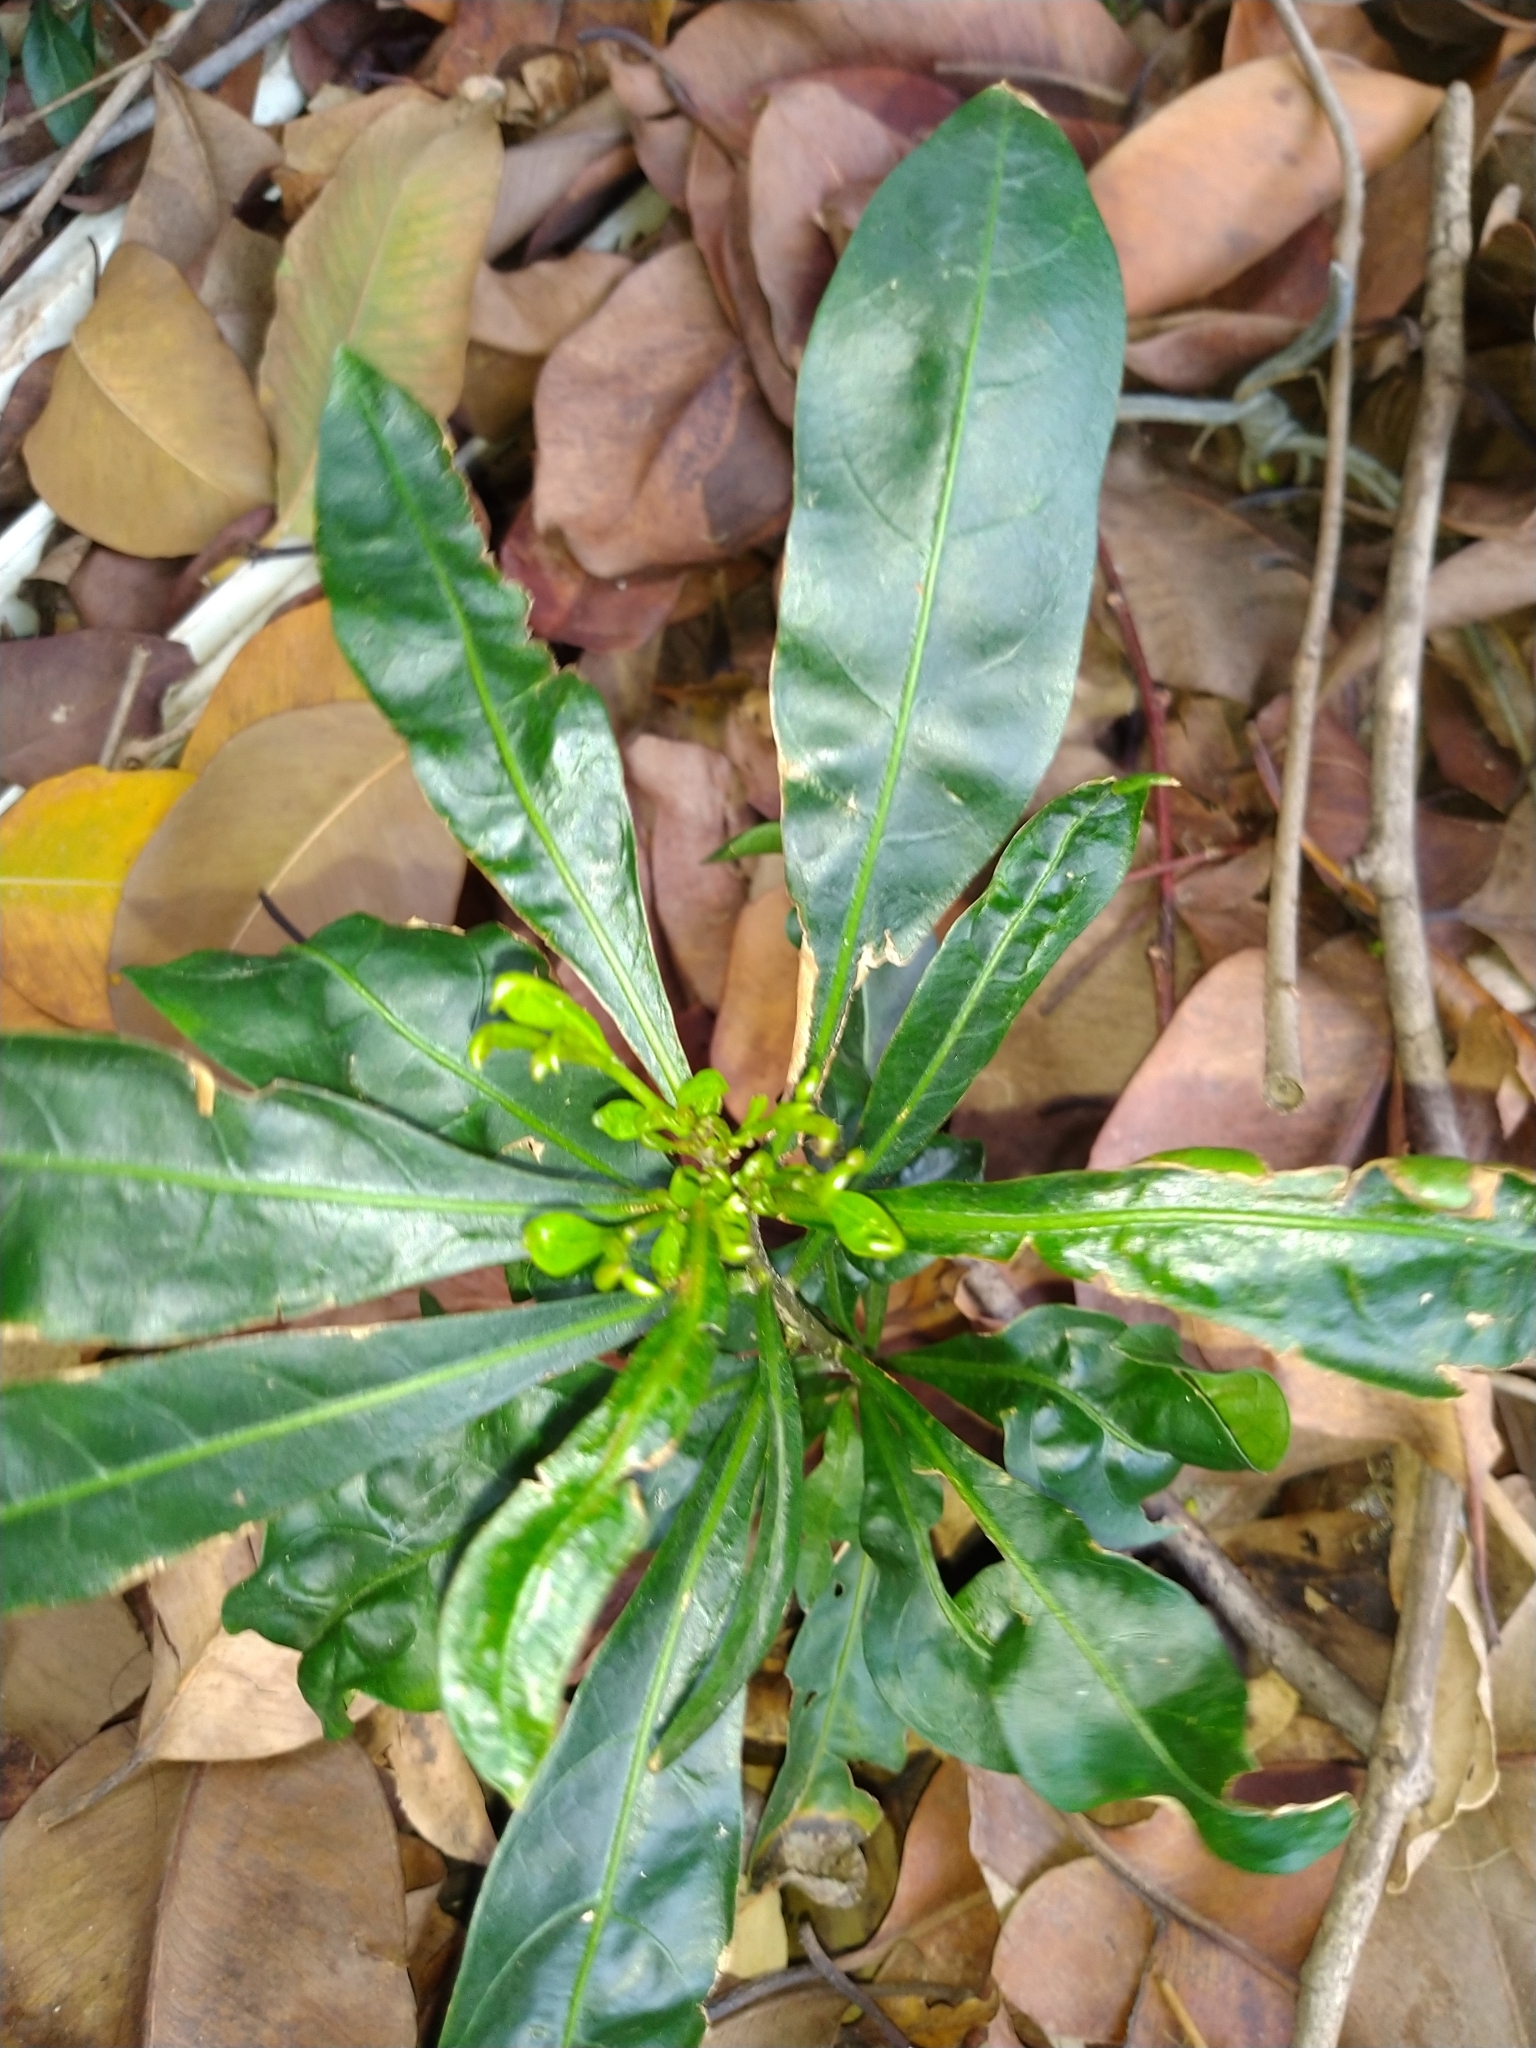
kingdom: Plantae
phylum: Tracheophyta
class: Magnoliopsida
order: Solanales
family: Solanaceae
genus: Solanum
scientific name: Solanum diphyllum
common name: Twoleaf nightshade
